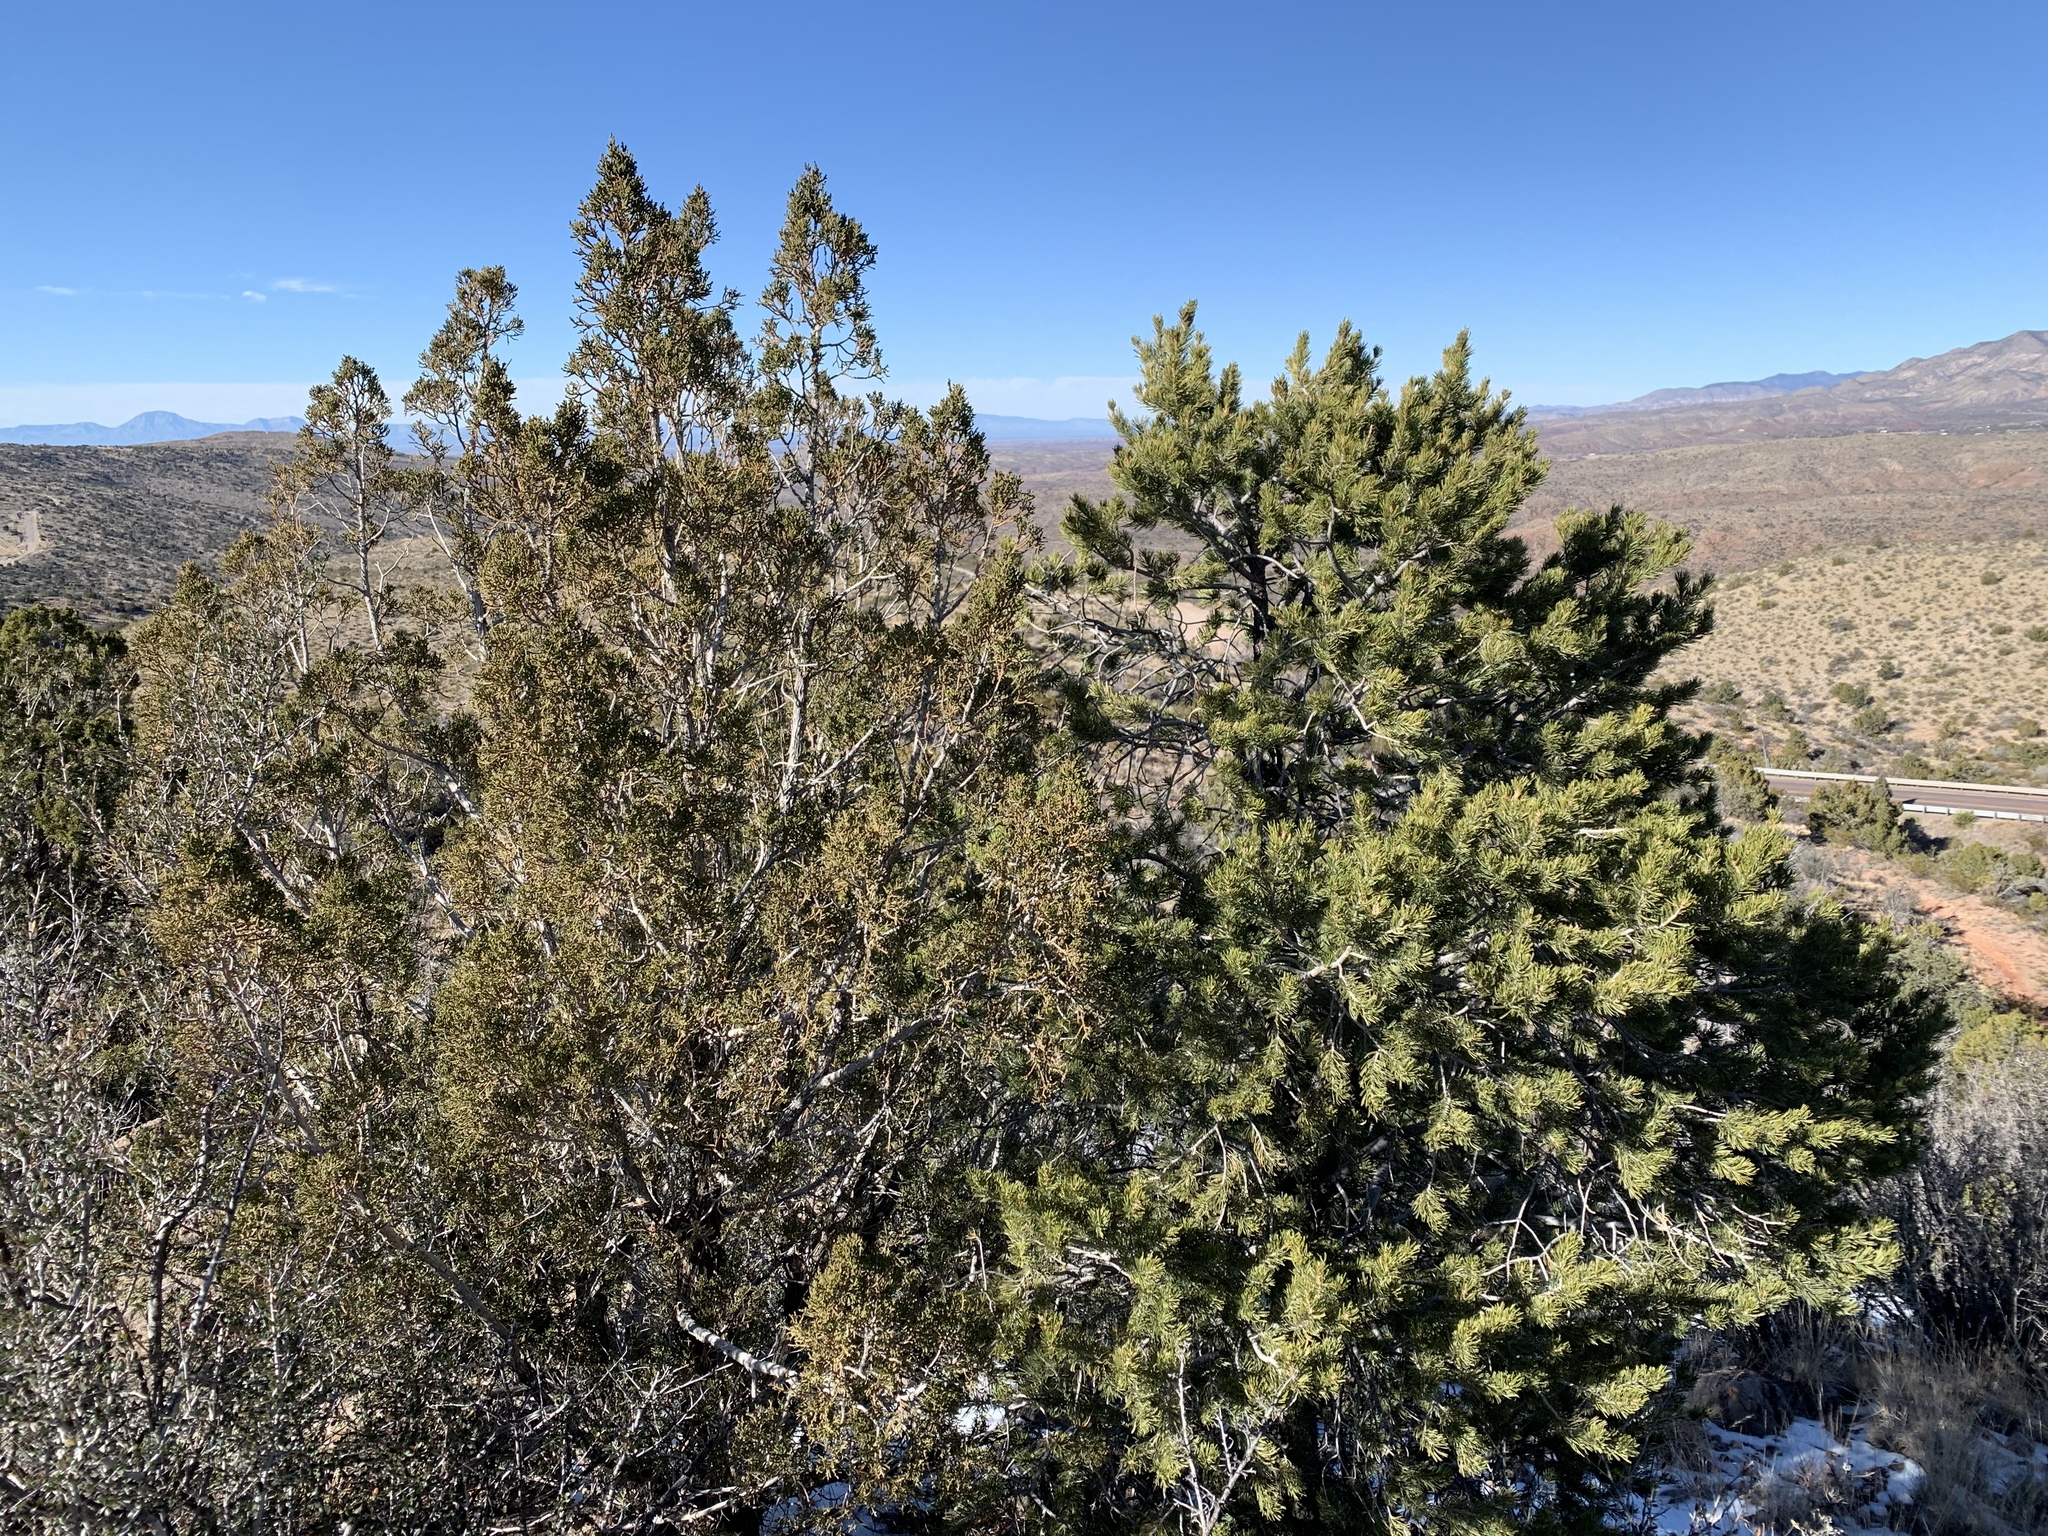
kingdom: Plantae
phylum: Tracheophyta
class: Pinopsida
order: Pinales
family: Cupressaceae
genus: Juniperus
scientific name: Juniperus monosperma
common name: One-seed juniper
